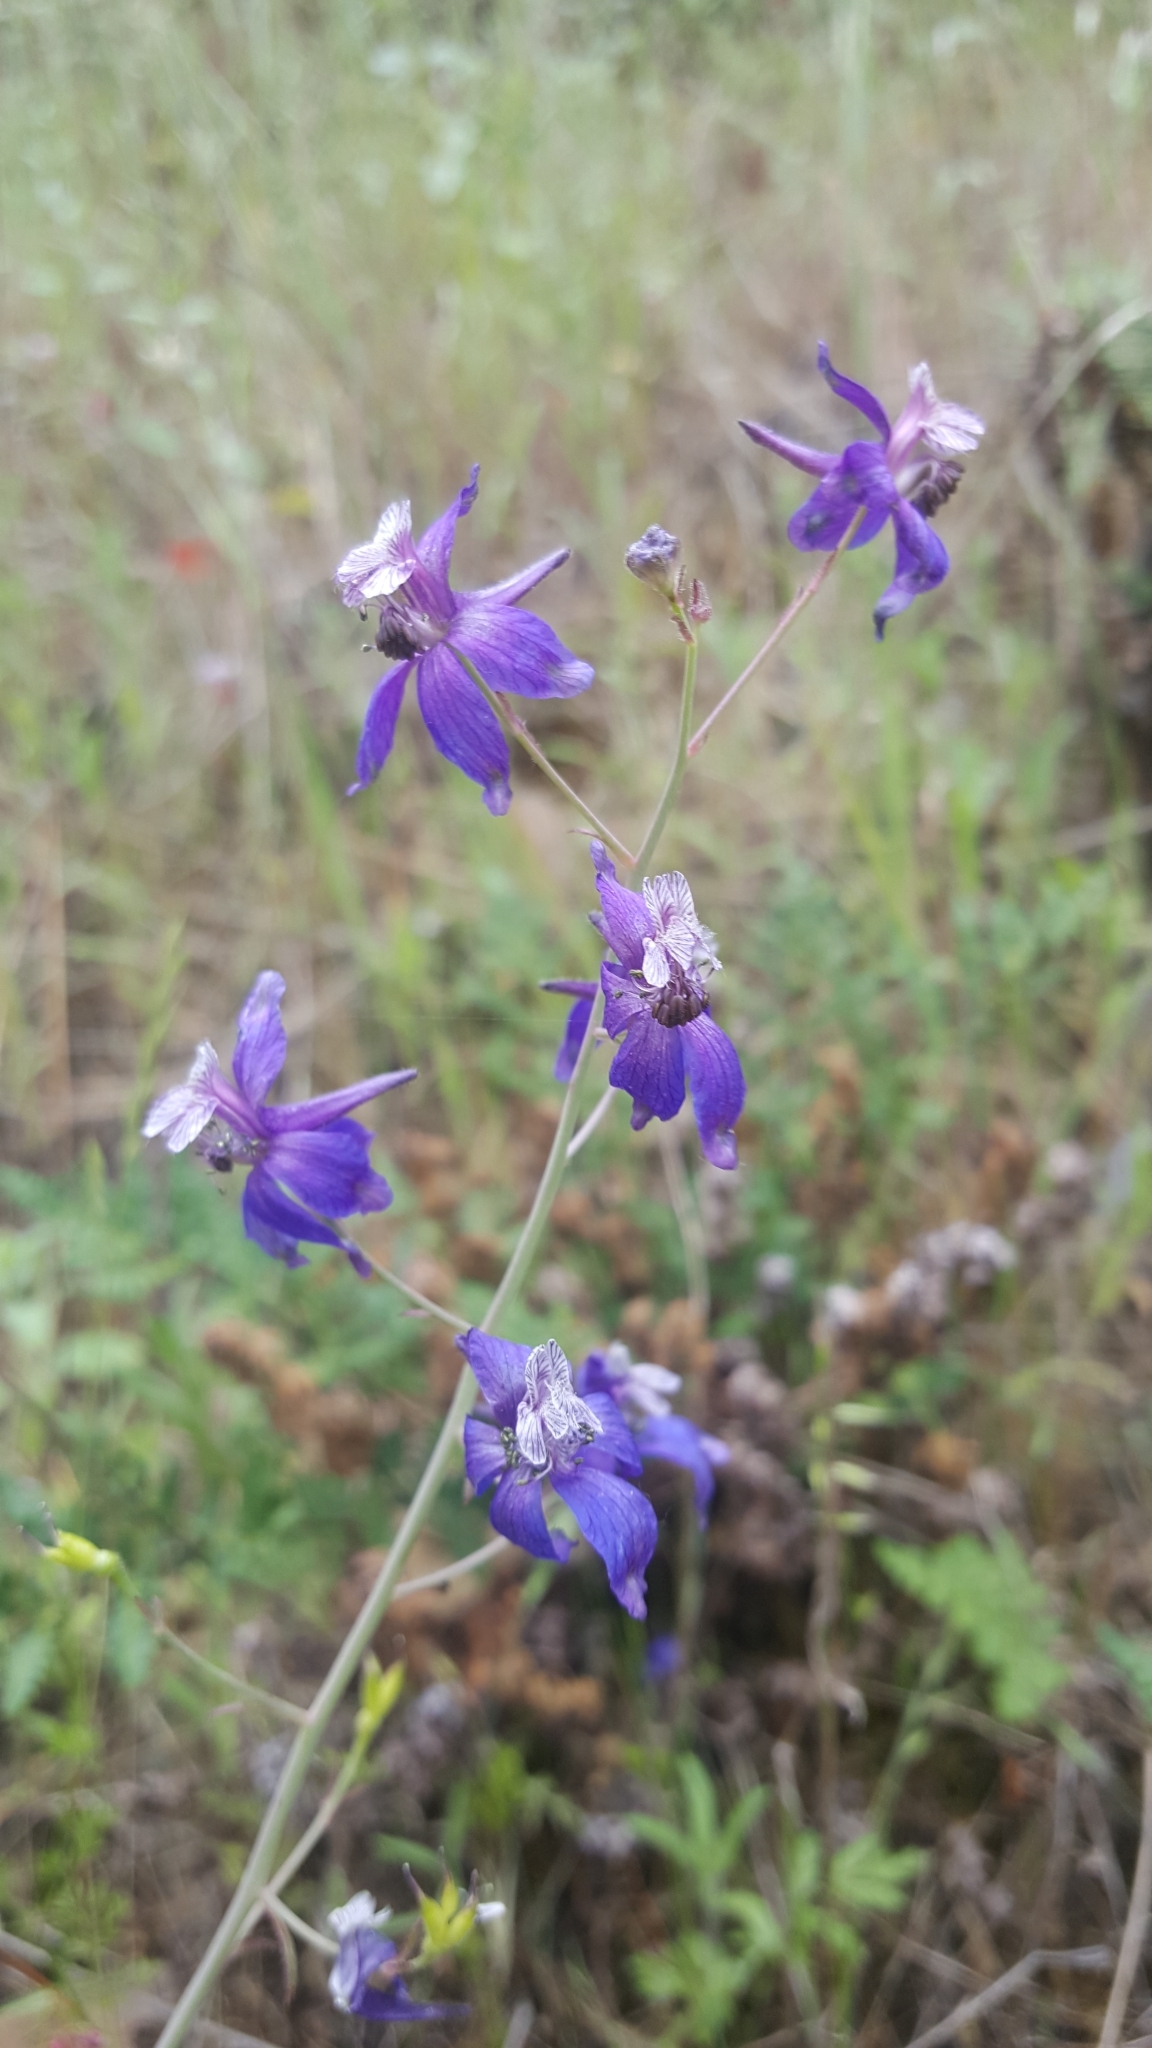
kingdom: Plantae
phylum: Tracheophyta
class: Magnoliopsida
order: Ranunculales
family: Ranunculaceae
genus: Delphinium
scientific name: Delphinium patens
